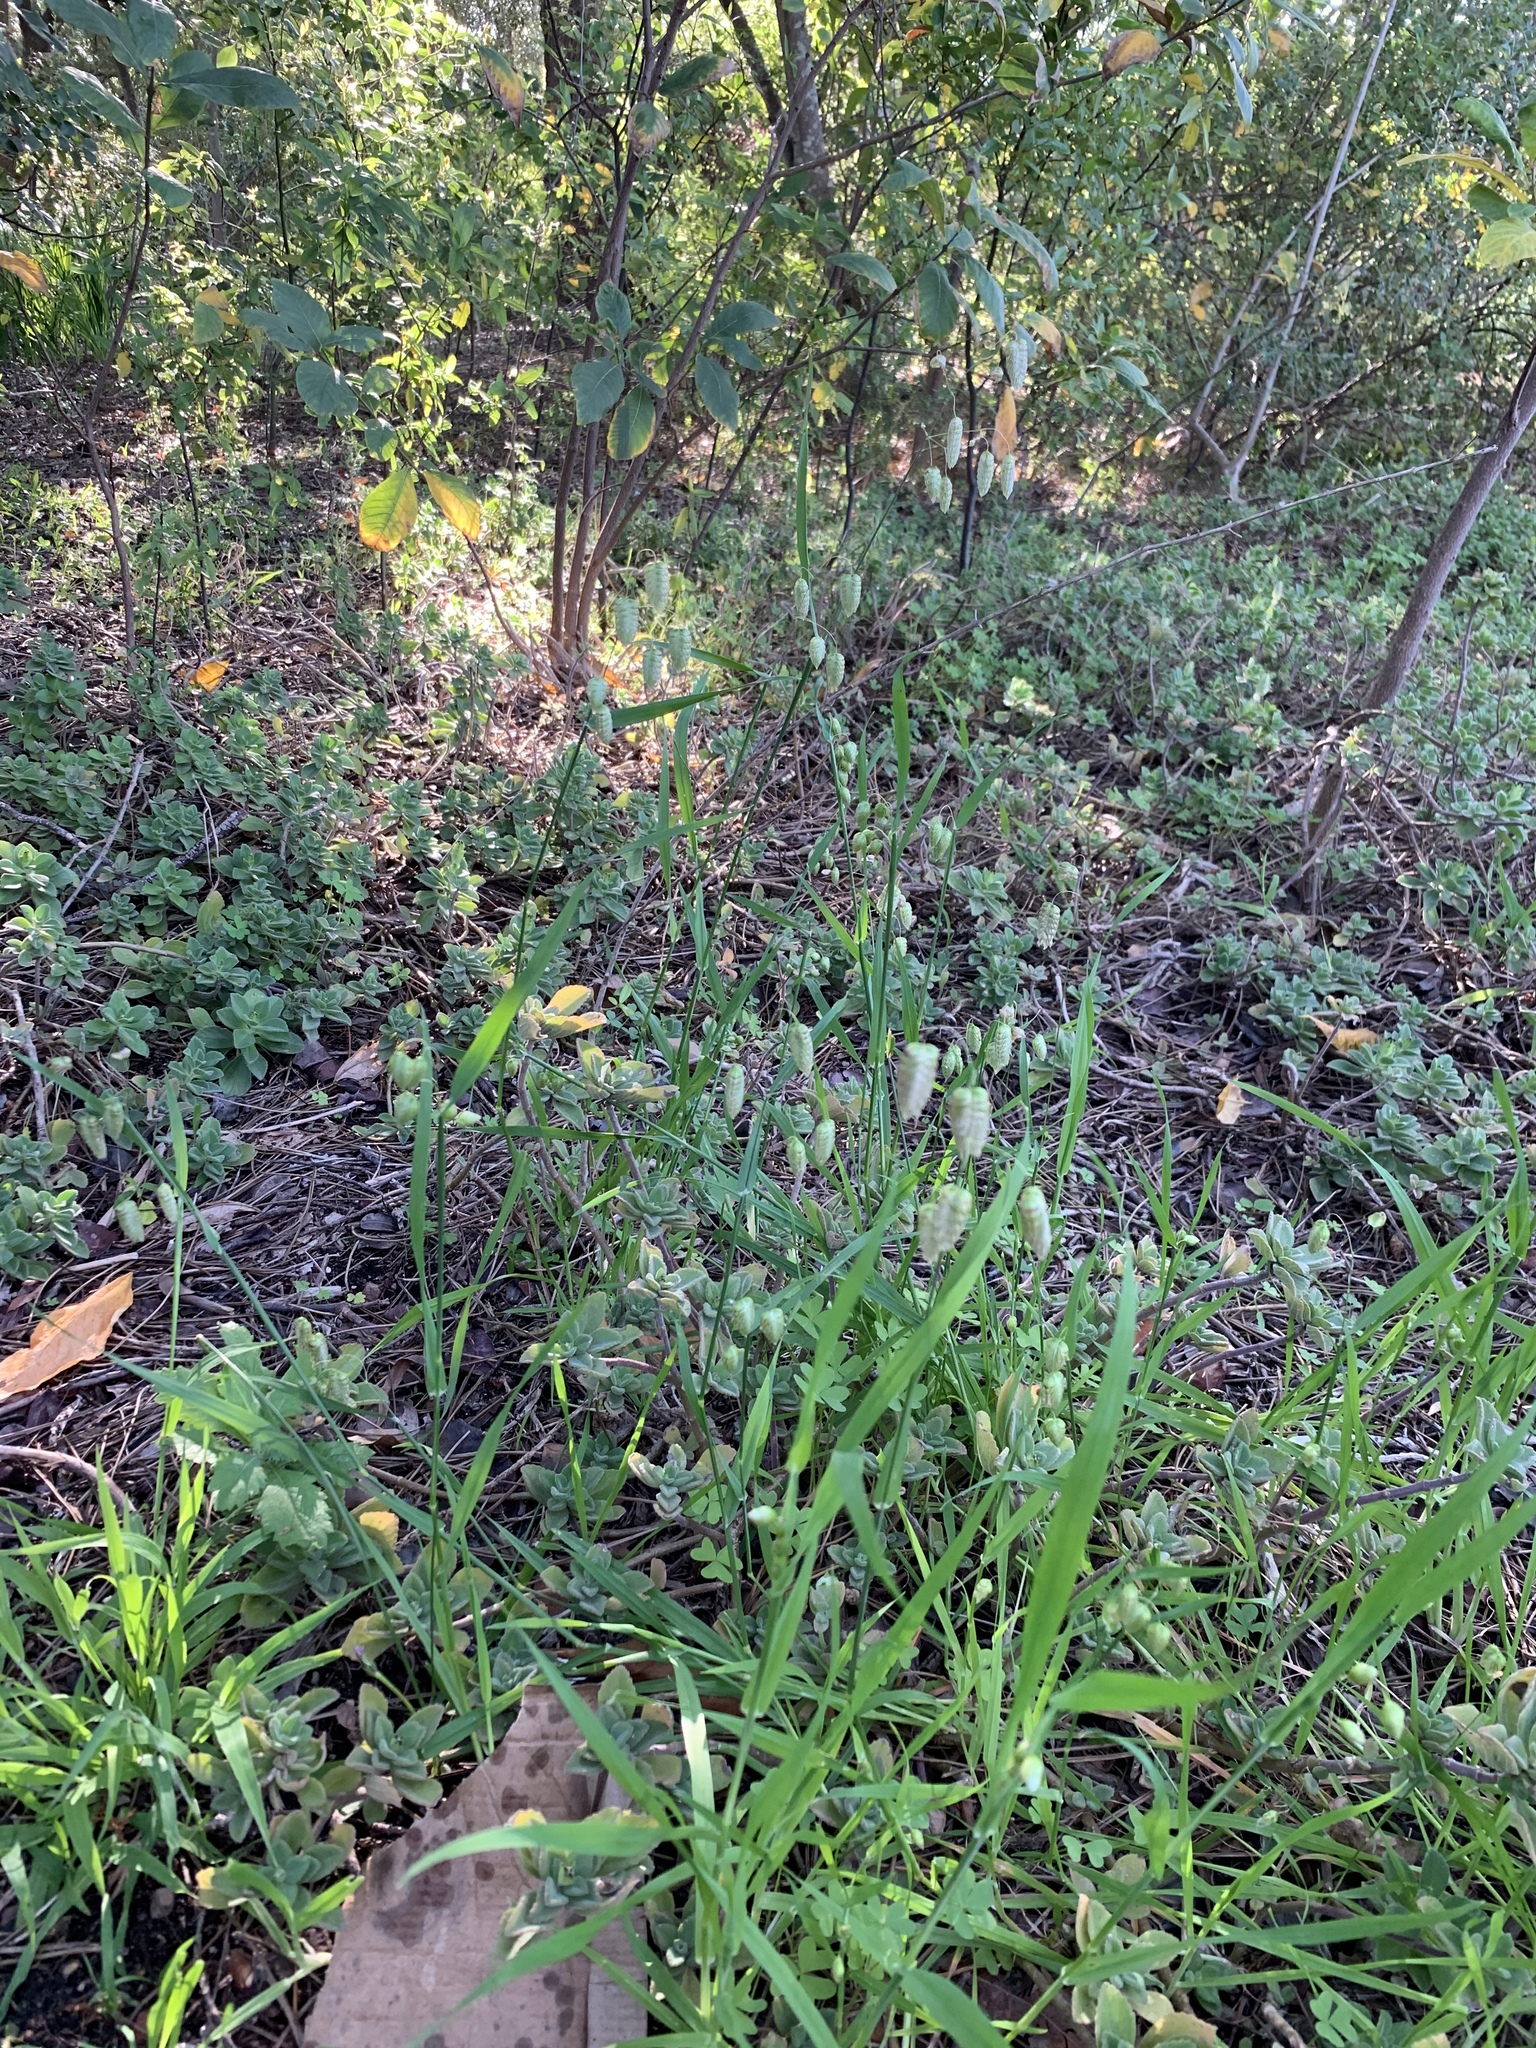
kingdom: Plantae
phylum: Tracheophyta
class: Liliopsida
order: Poales
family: Poaceae
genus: Briza
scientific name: Briza maxima
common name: Big quakinggrass
